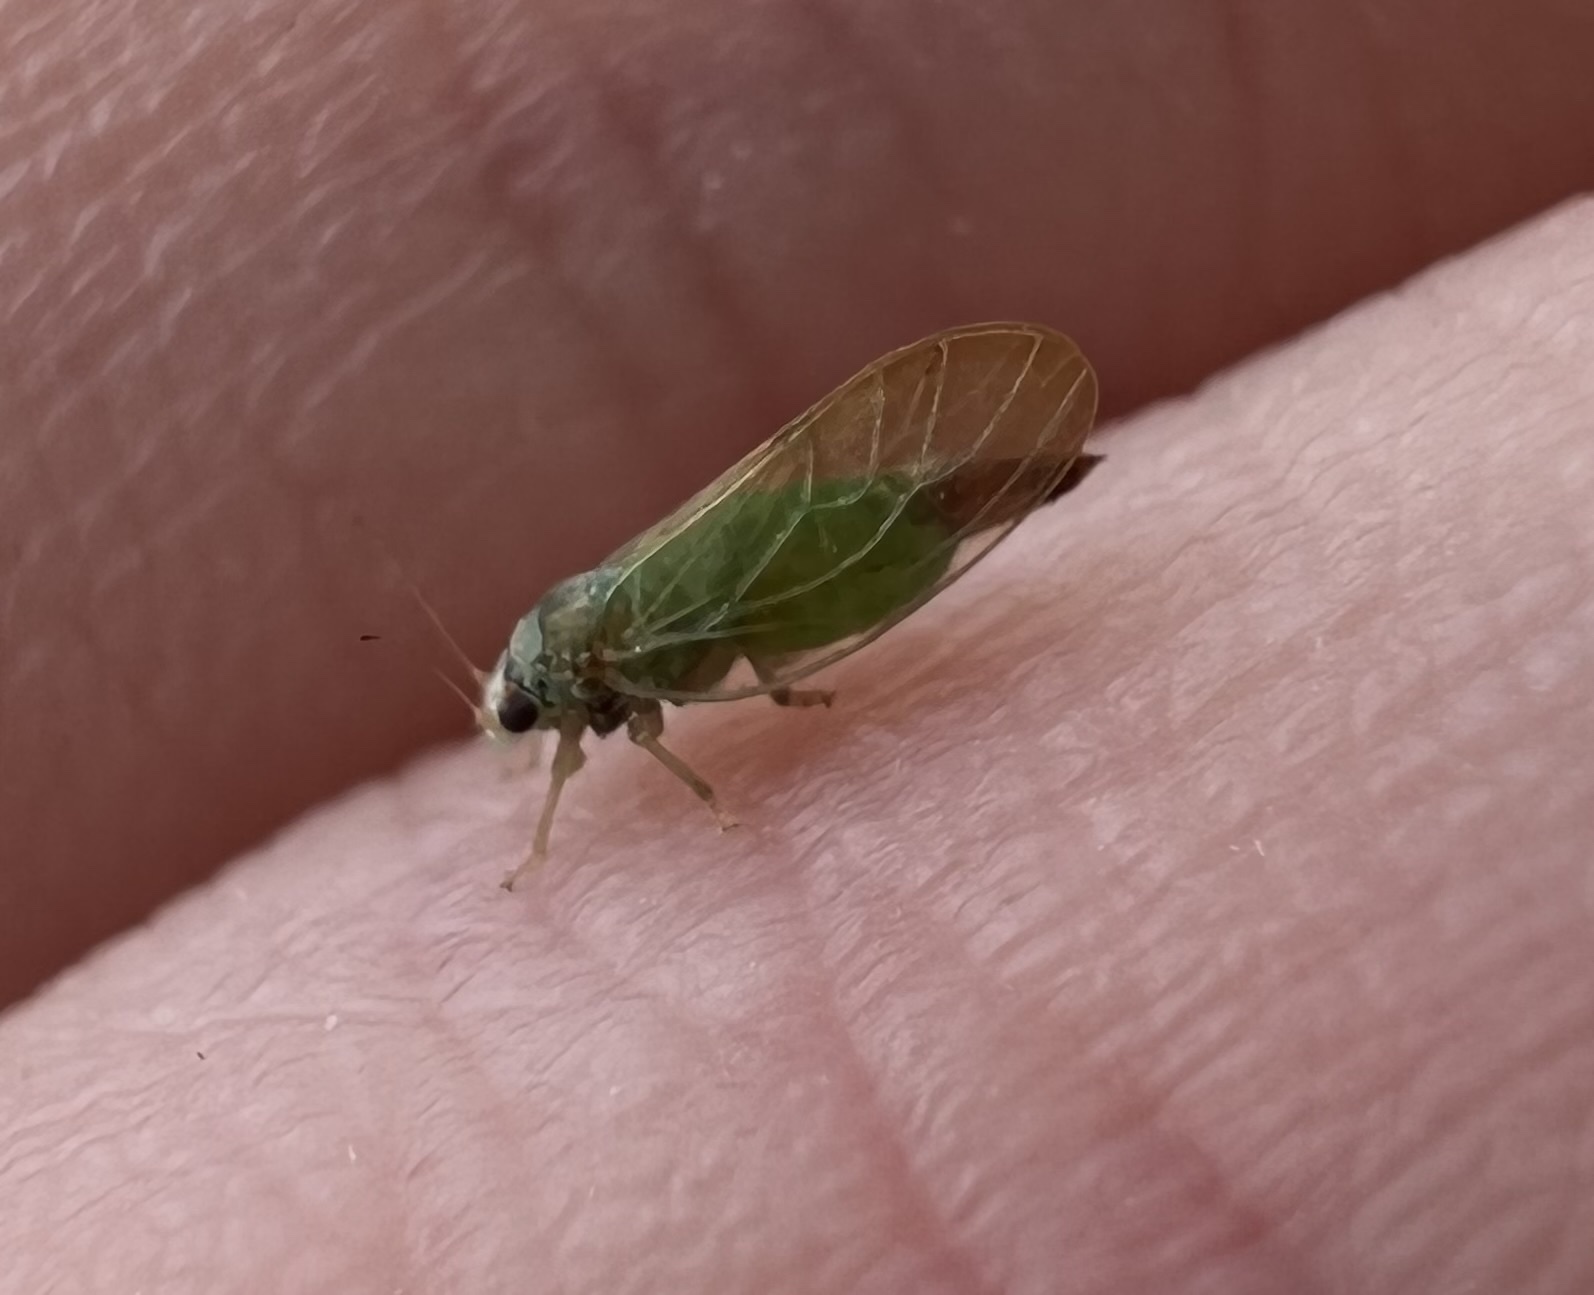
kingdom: Animalia
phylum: Arthropoda
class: Insecta
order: Hemiptera
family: Psyllidae
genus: Psylla
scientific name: Psylla buxi
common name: Boxwood psyllid
